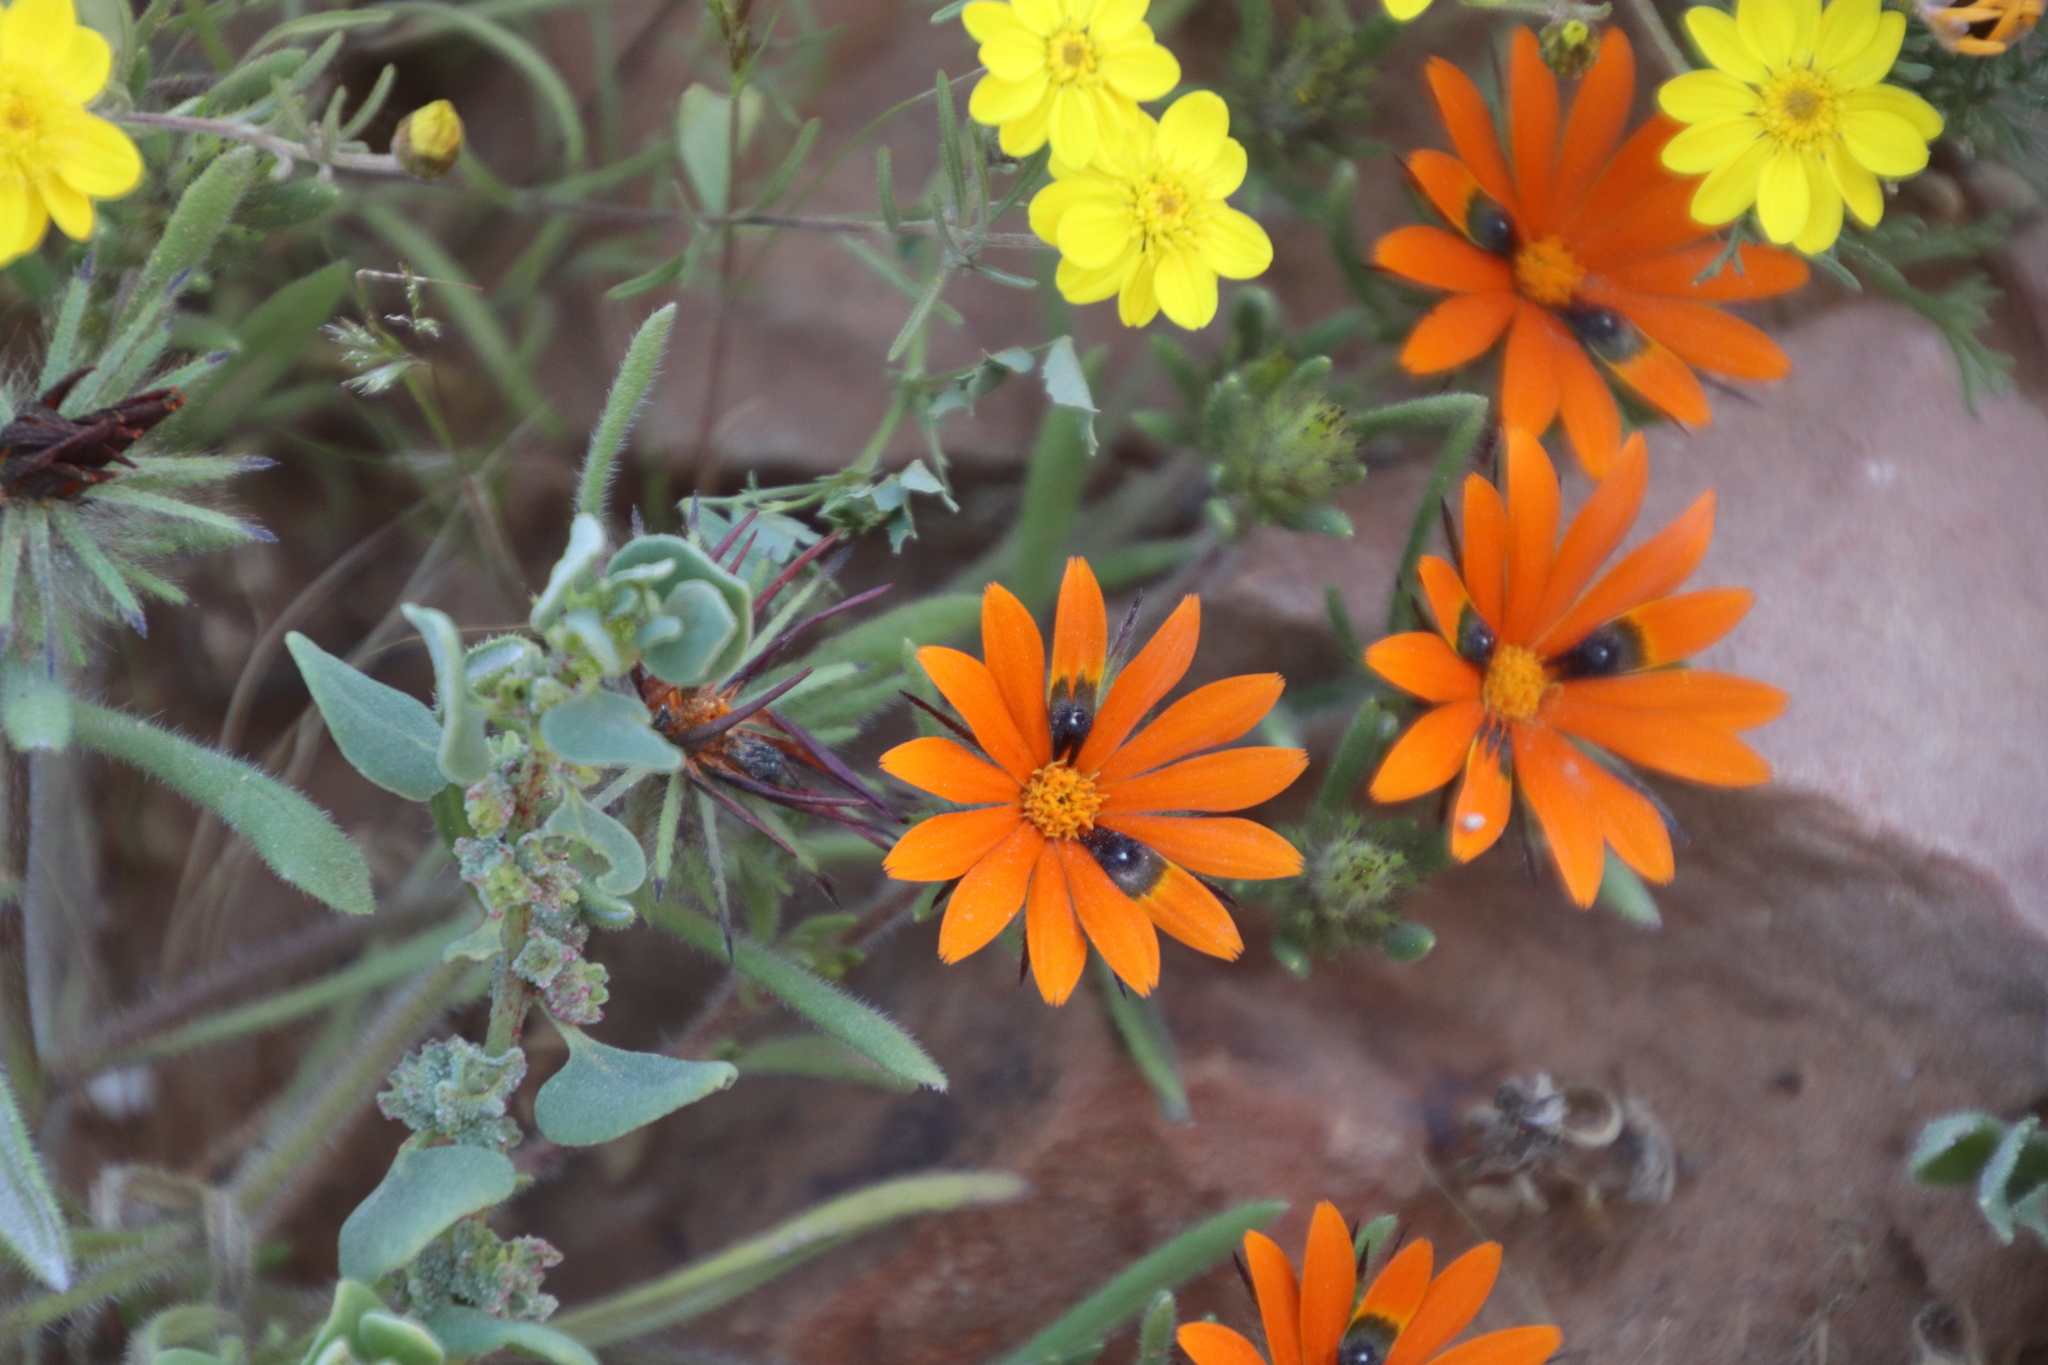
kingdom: Plantae
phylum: Tracheophyta
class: Magnoliopsida
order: Asterales
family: Asteraceae
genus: Gorteria
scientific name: Gorteria diffusa
